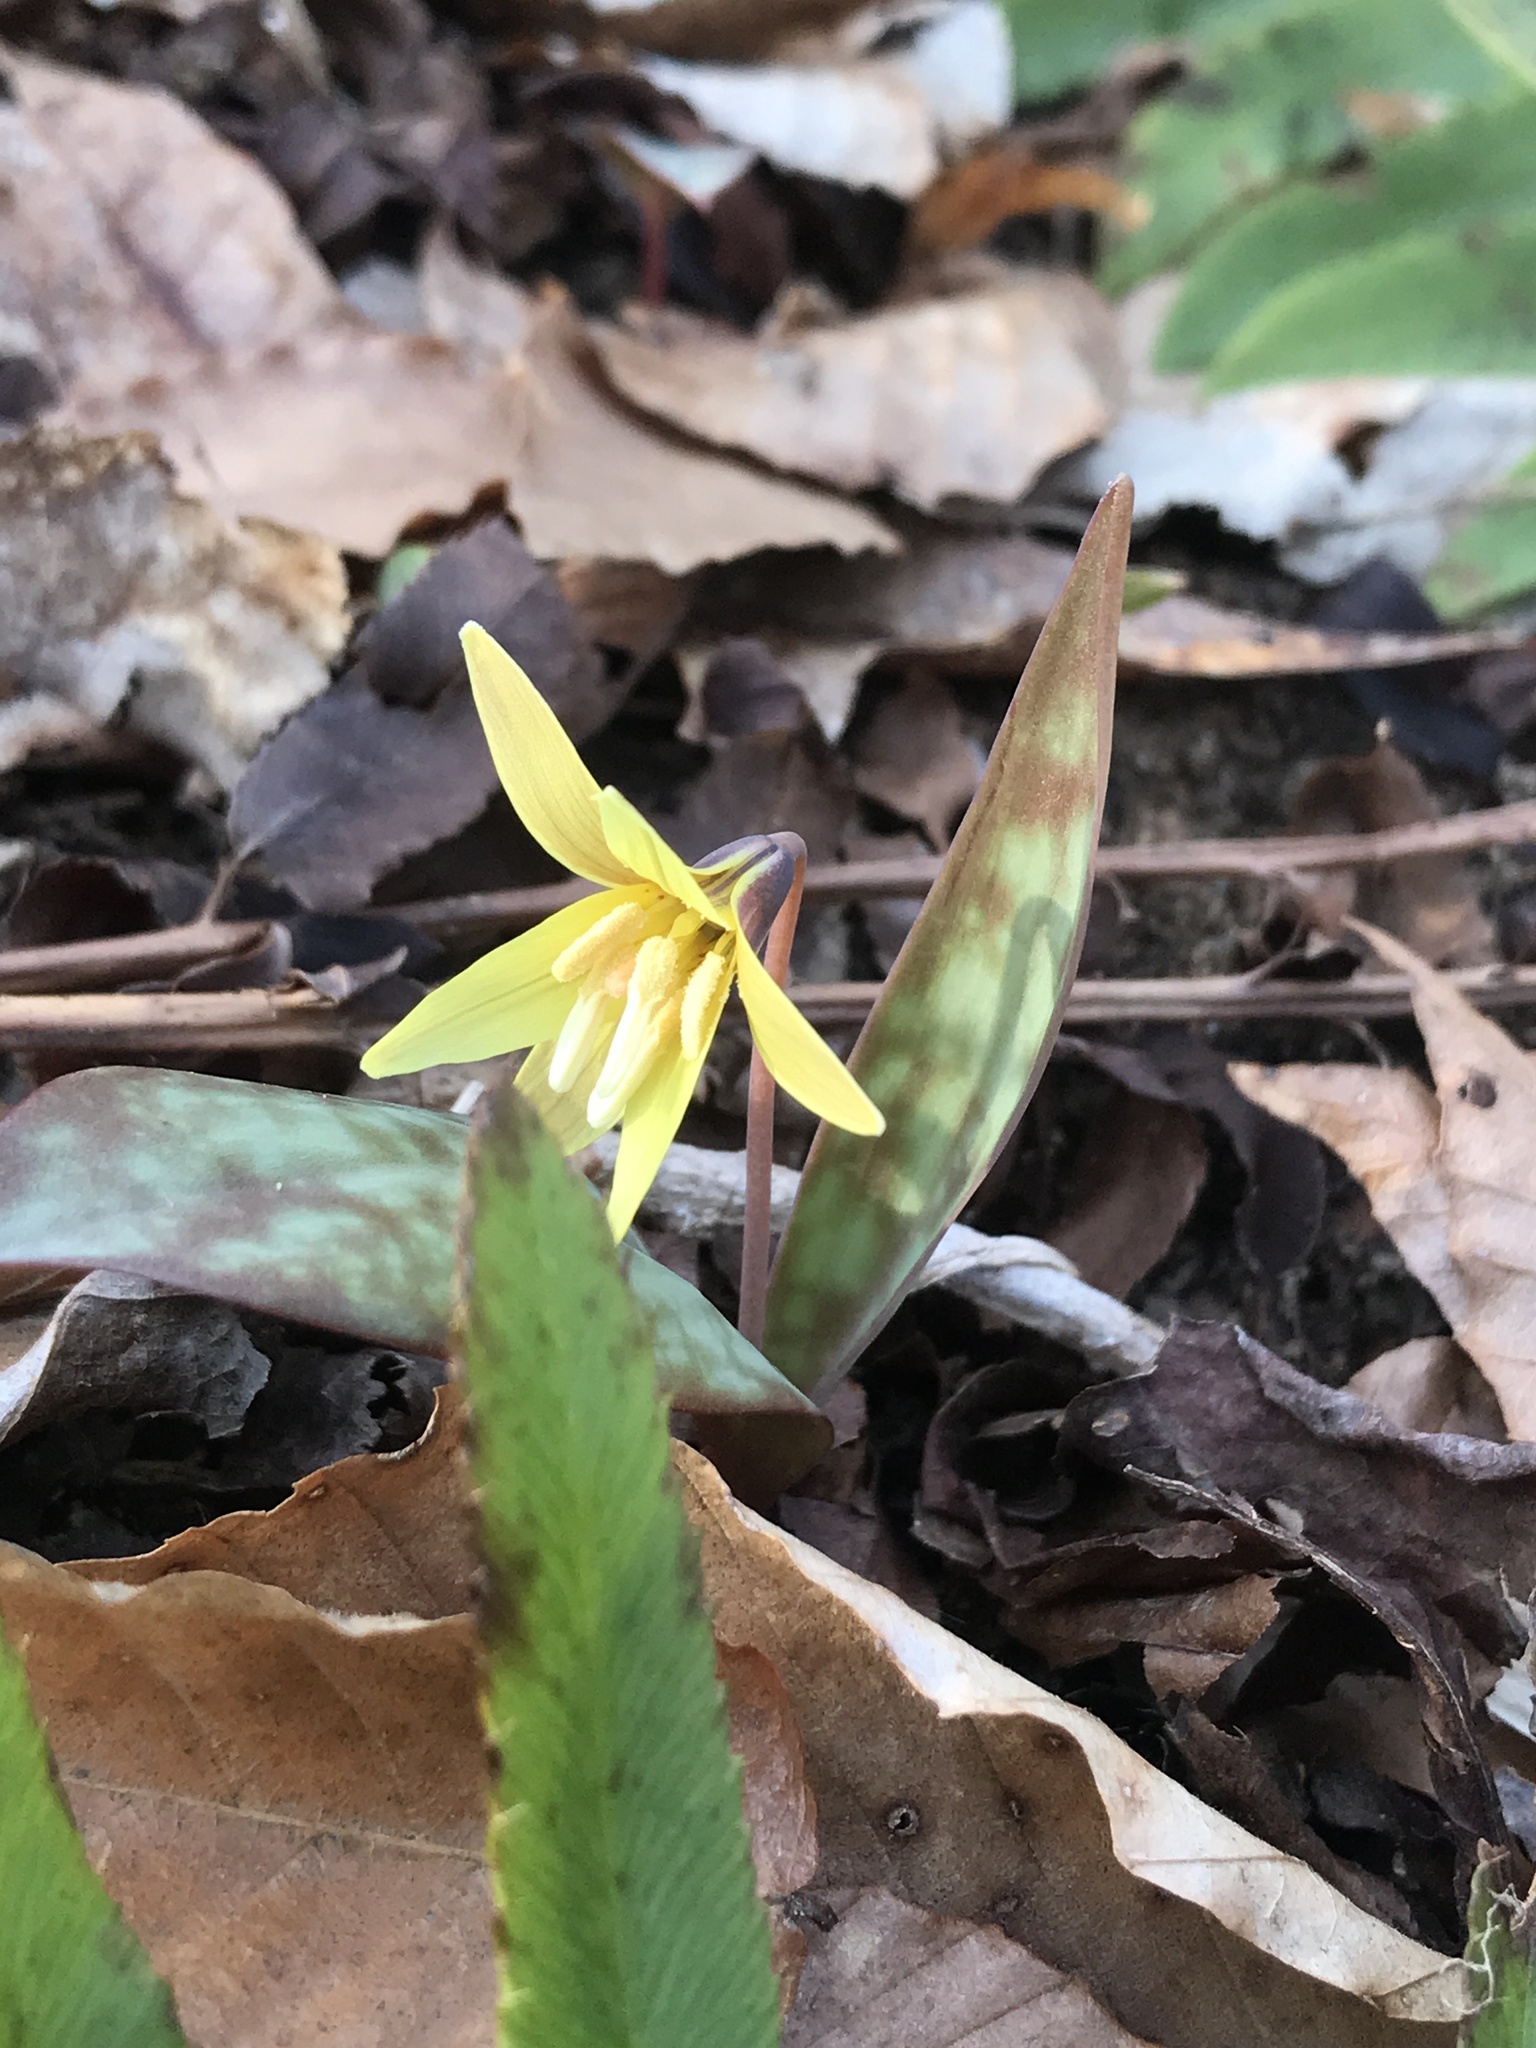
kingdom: Plantae
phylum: Tracheophyta
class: Liliopsida
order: Liliales
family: Liliaceae
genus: Erythronium
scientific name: Erythronium umbilicatum
